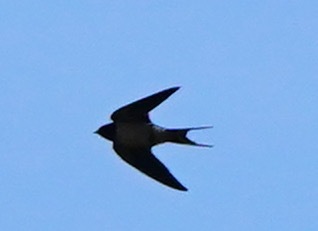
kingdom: Animalia
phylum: Chordata
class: Aves
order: Passeriformes
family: Hirundinidae
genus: Hirundo
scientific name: Hirundo rustica
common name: Barn swallow
